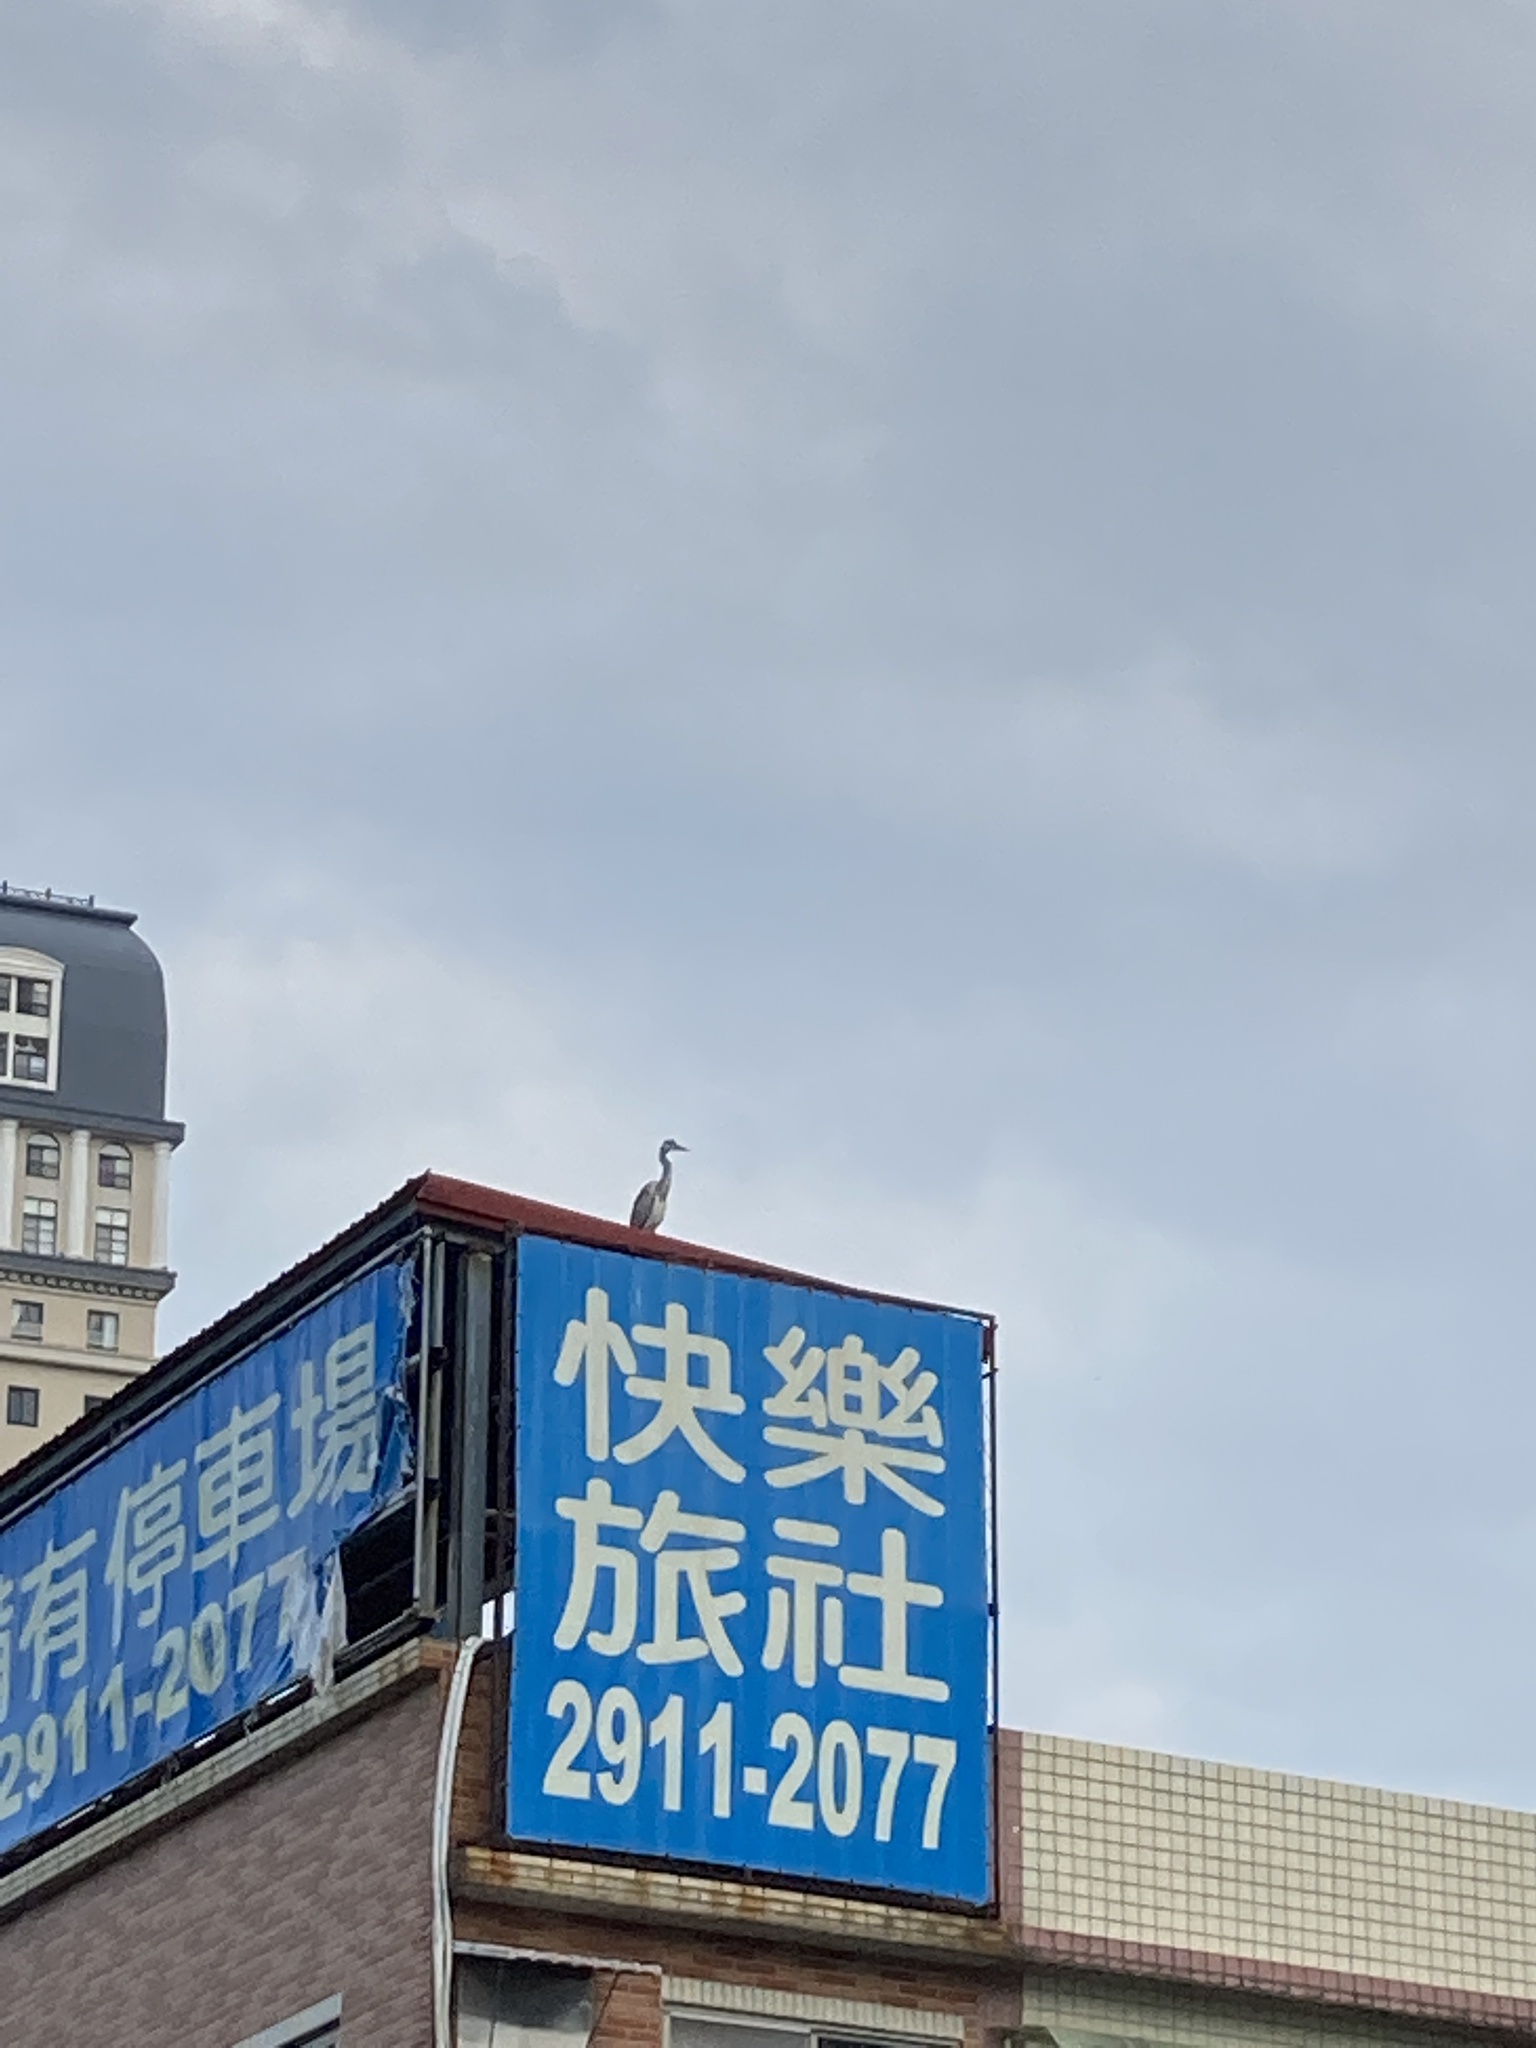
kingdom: Animalia
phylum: Chordata
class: Aves
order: Pelecaniformes
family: Ardeidae
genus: Ardea
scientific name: Ardea cinerea
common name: Grey heron
